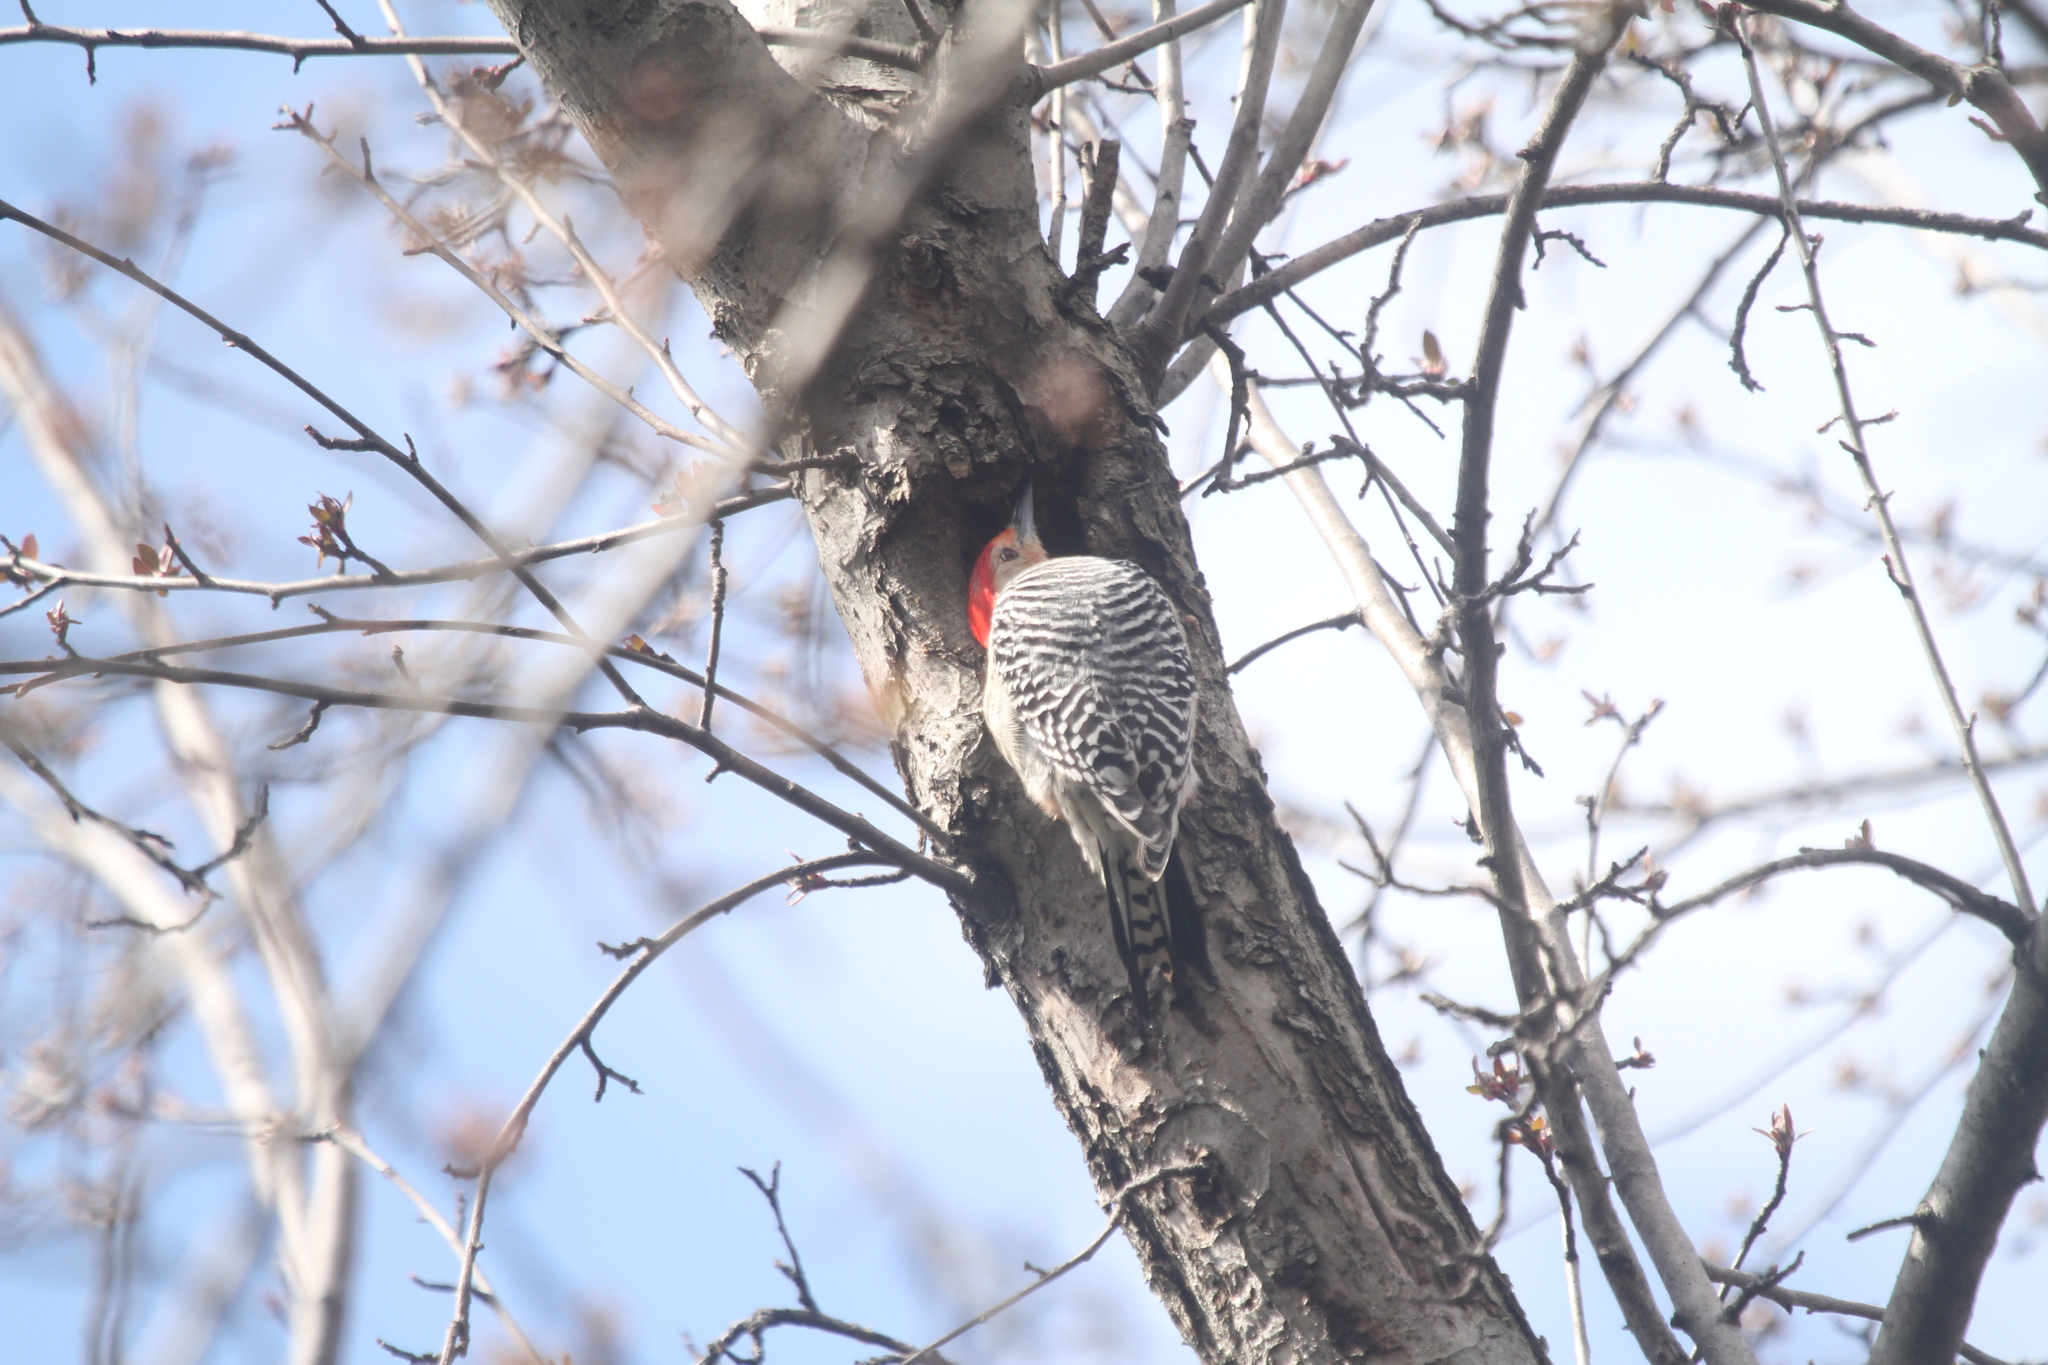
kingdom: Animalia
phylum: Chordata
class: Aves
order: Piciformes
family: Picidae
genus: Melanerpes
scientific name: Melanerpes carolinus
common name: Red-bellied woodpecker
